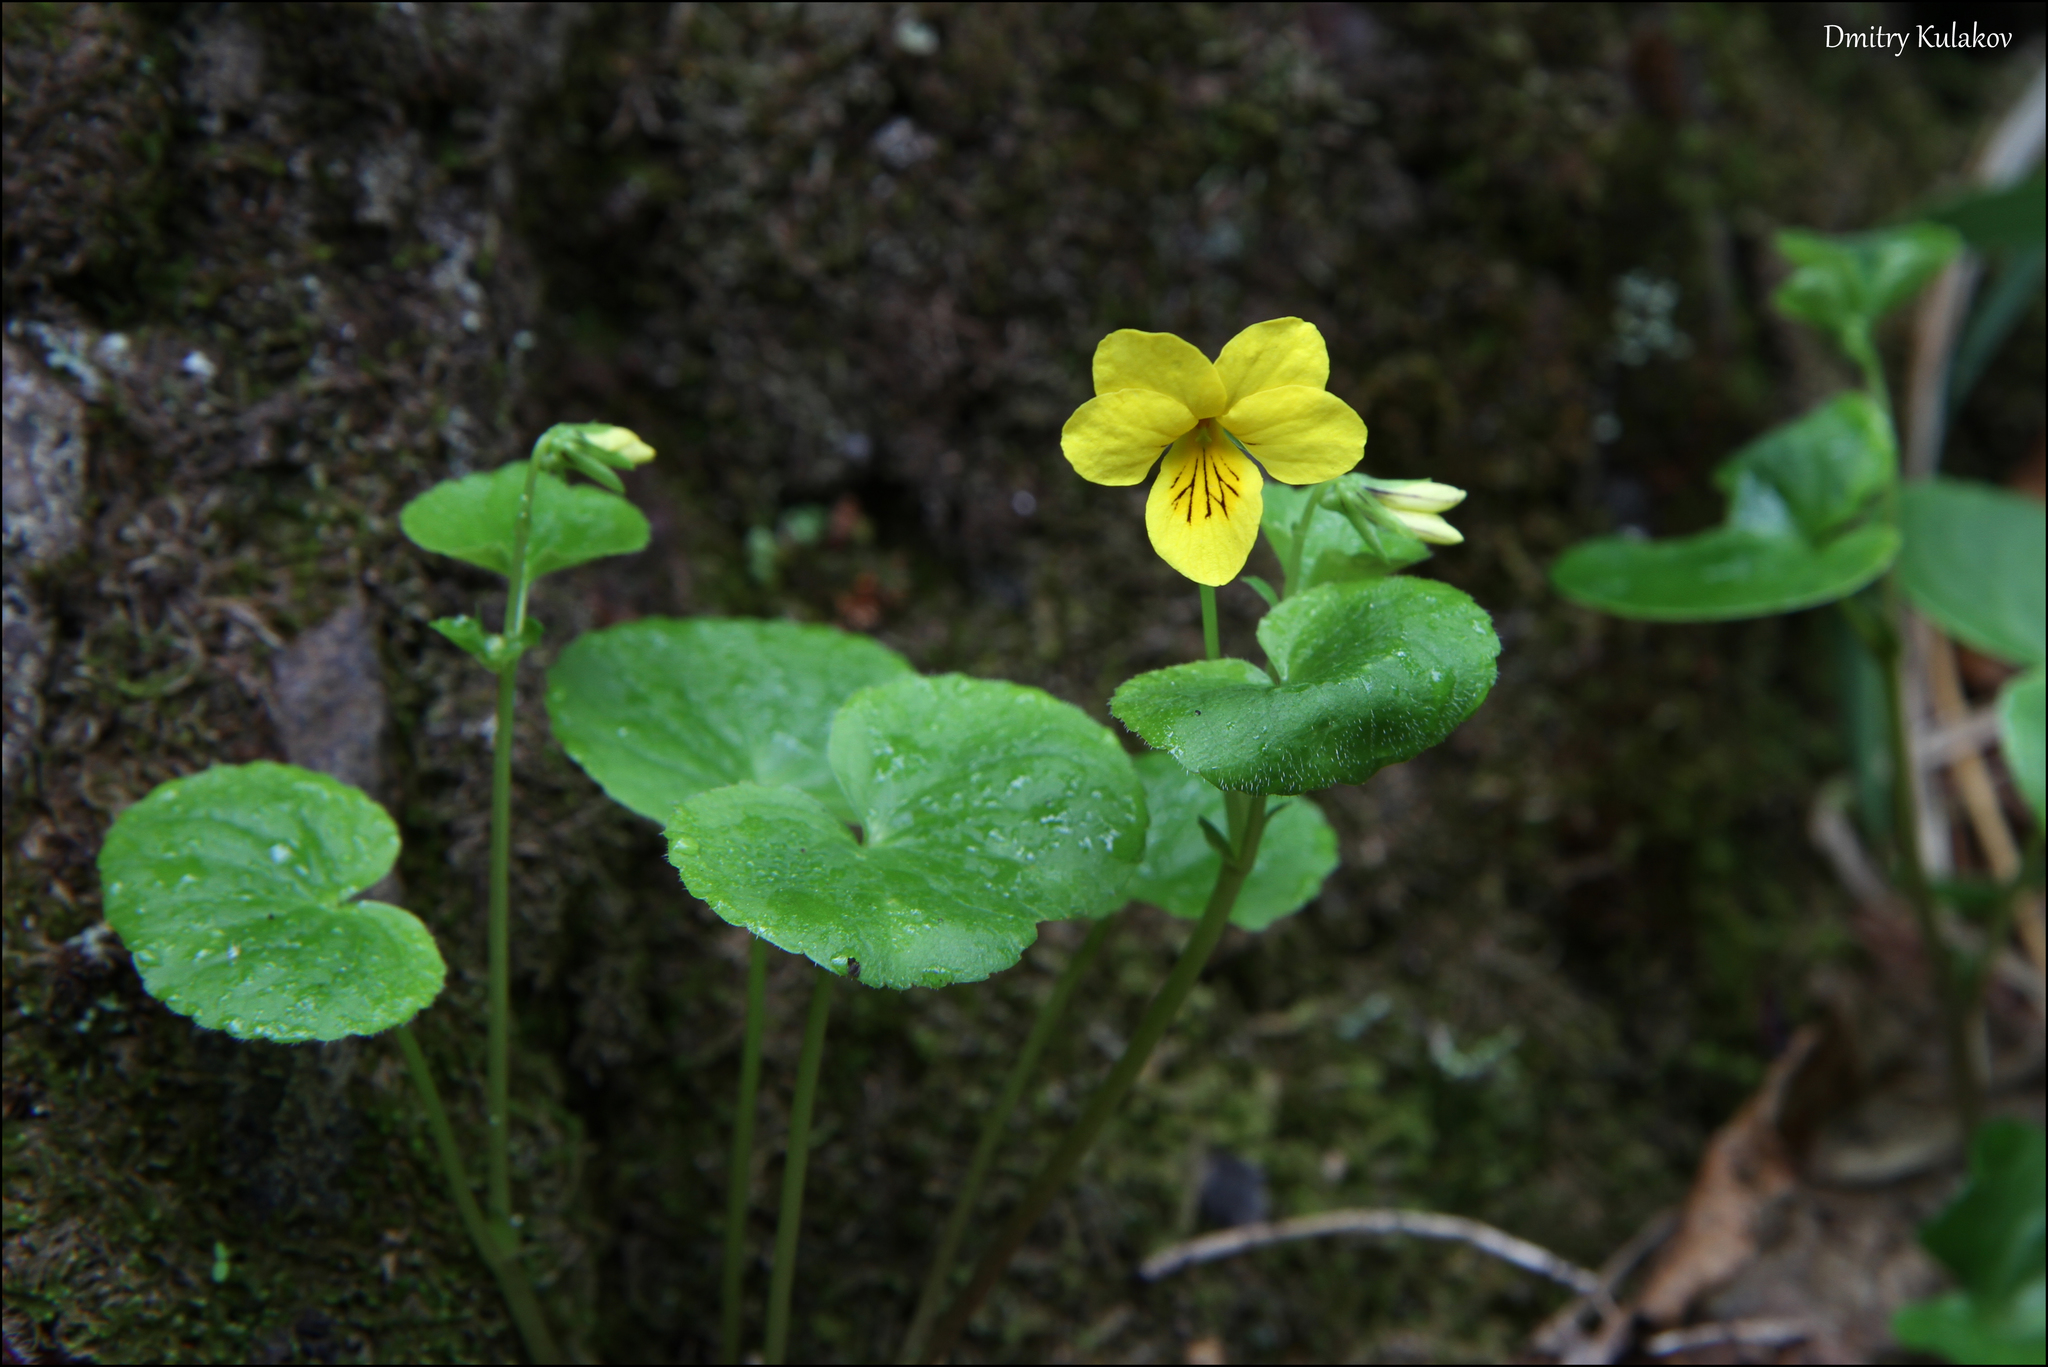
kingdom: Plantae
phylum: Tracheophyta
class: Magnoliopsida
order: Malpighiales
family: Violaceae
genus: Viola
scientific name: Viola biflora
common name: Alpine yellow violet
